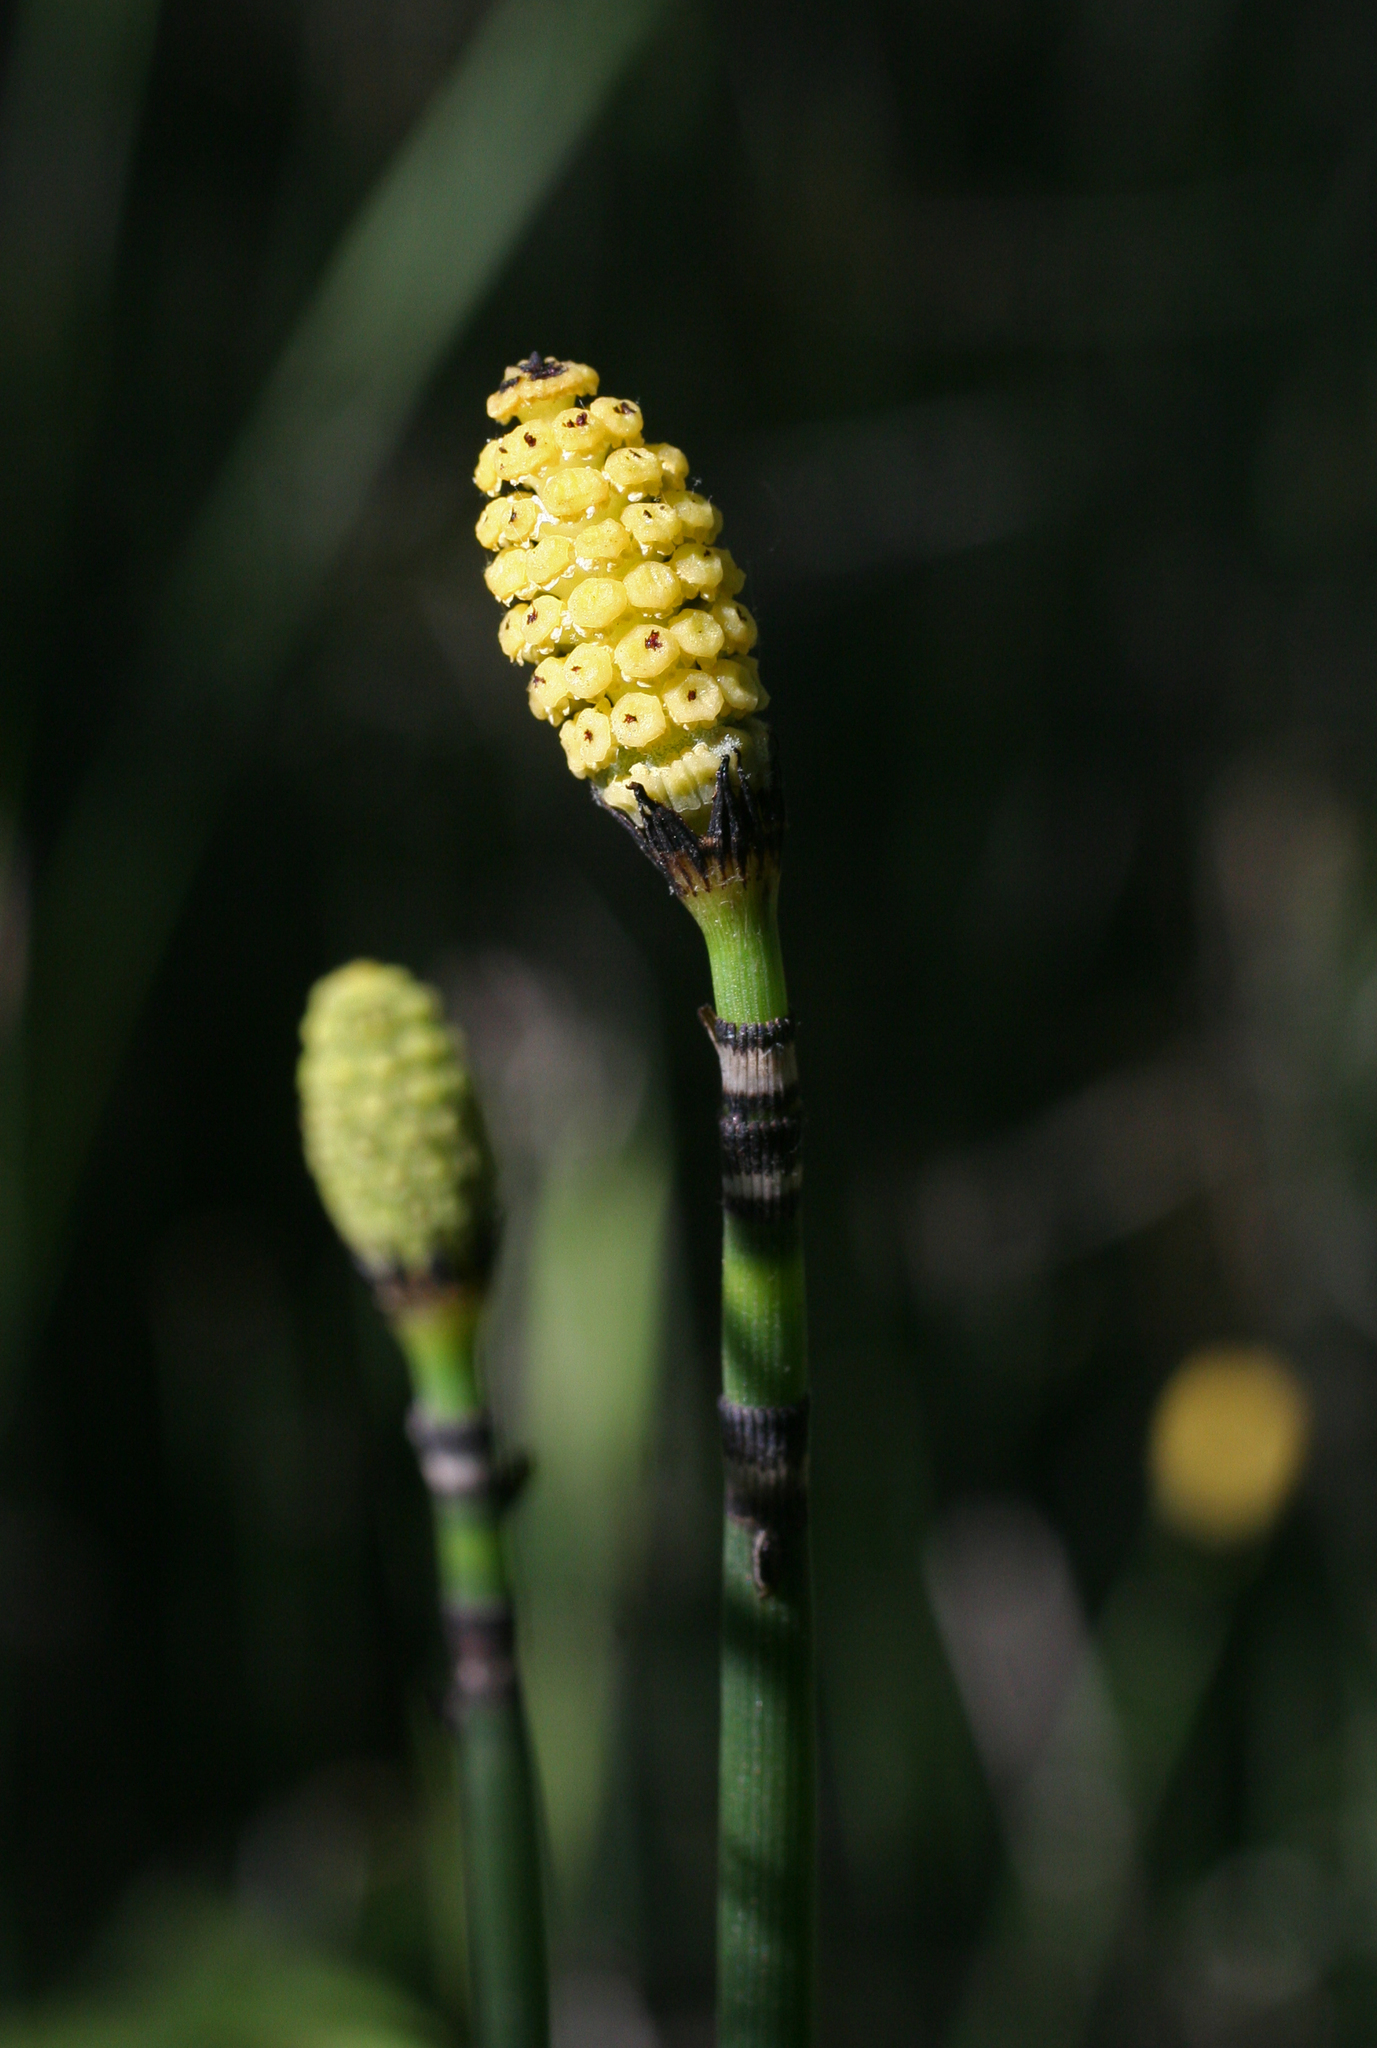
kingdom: Plantae
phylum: Tracheophyta
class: Polypodiopsida
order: Equisetales
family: Equisetaceae
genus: Equisetum
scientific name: Equisetum hyemale
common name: Rough horsetail
